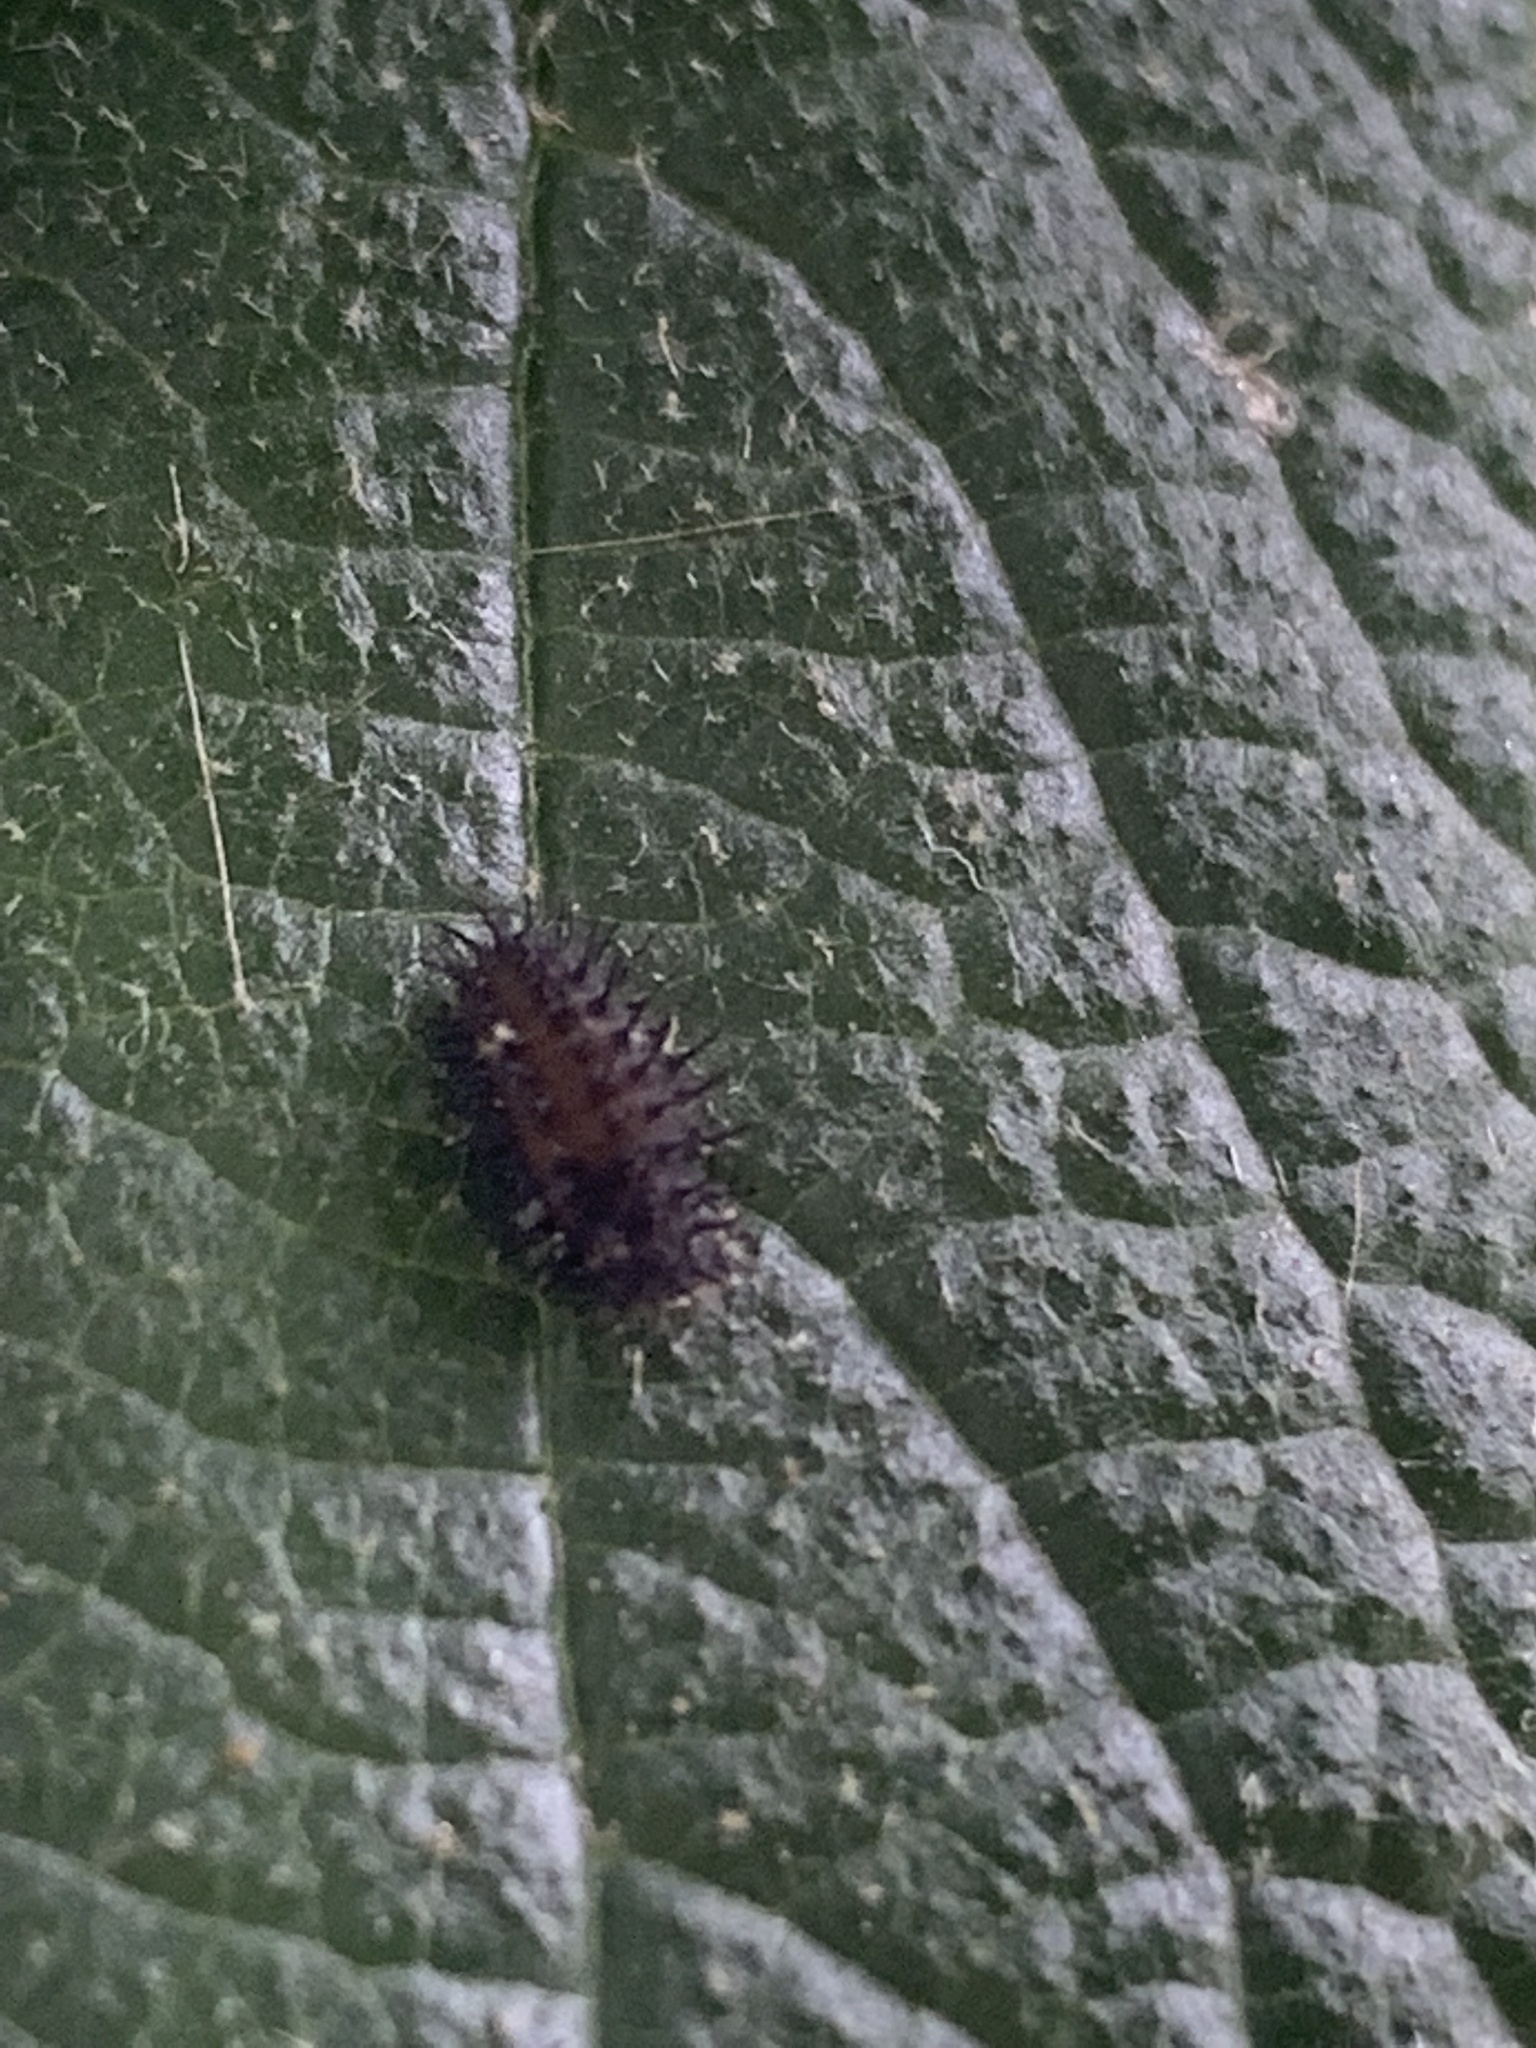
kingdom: Animalia
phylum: Arthropoda
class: Insecta
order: Coleoptera
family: Coccinellidae
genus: Chilocorus
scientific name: Chilocorus renipustulatus
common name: Kidney-spot ladybird
